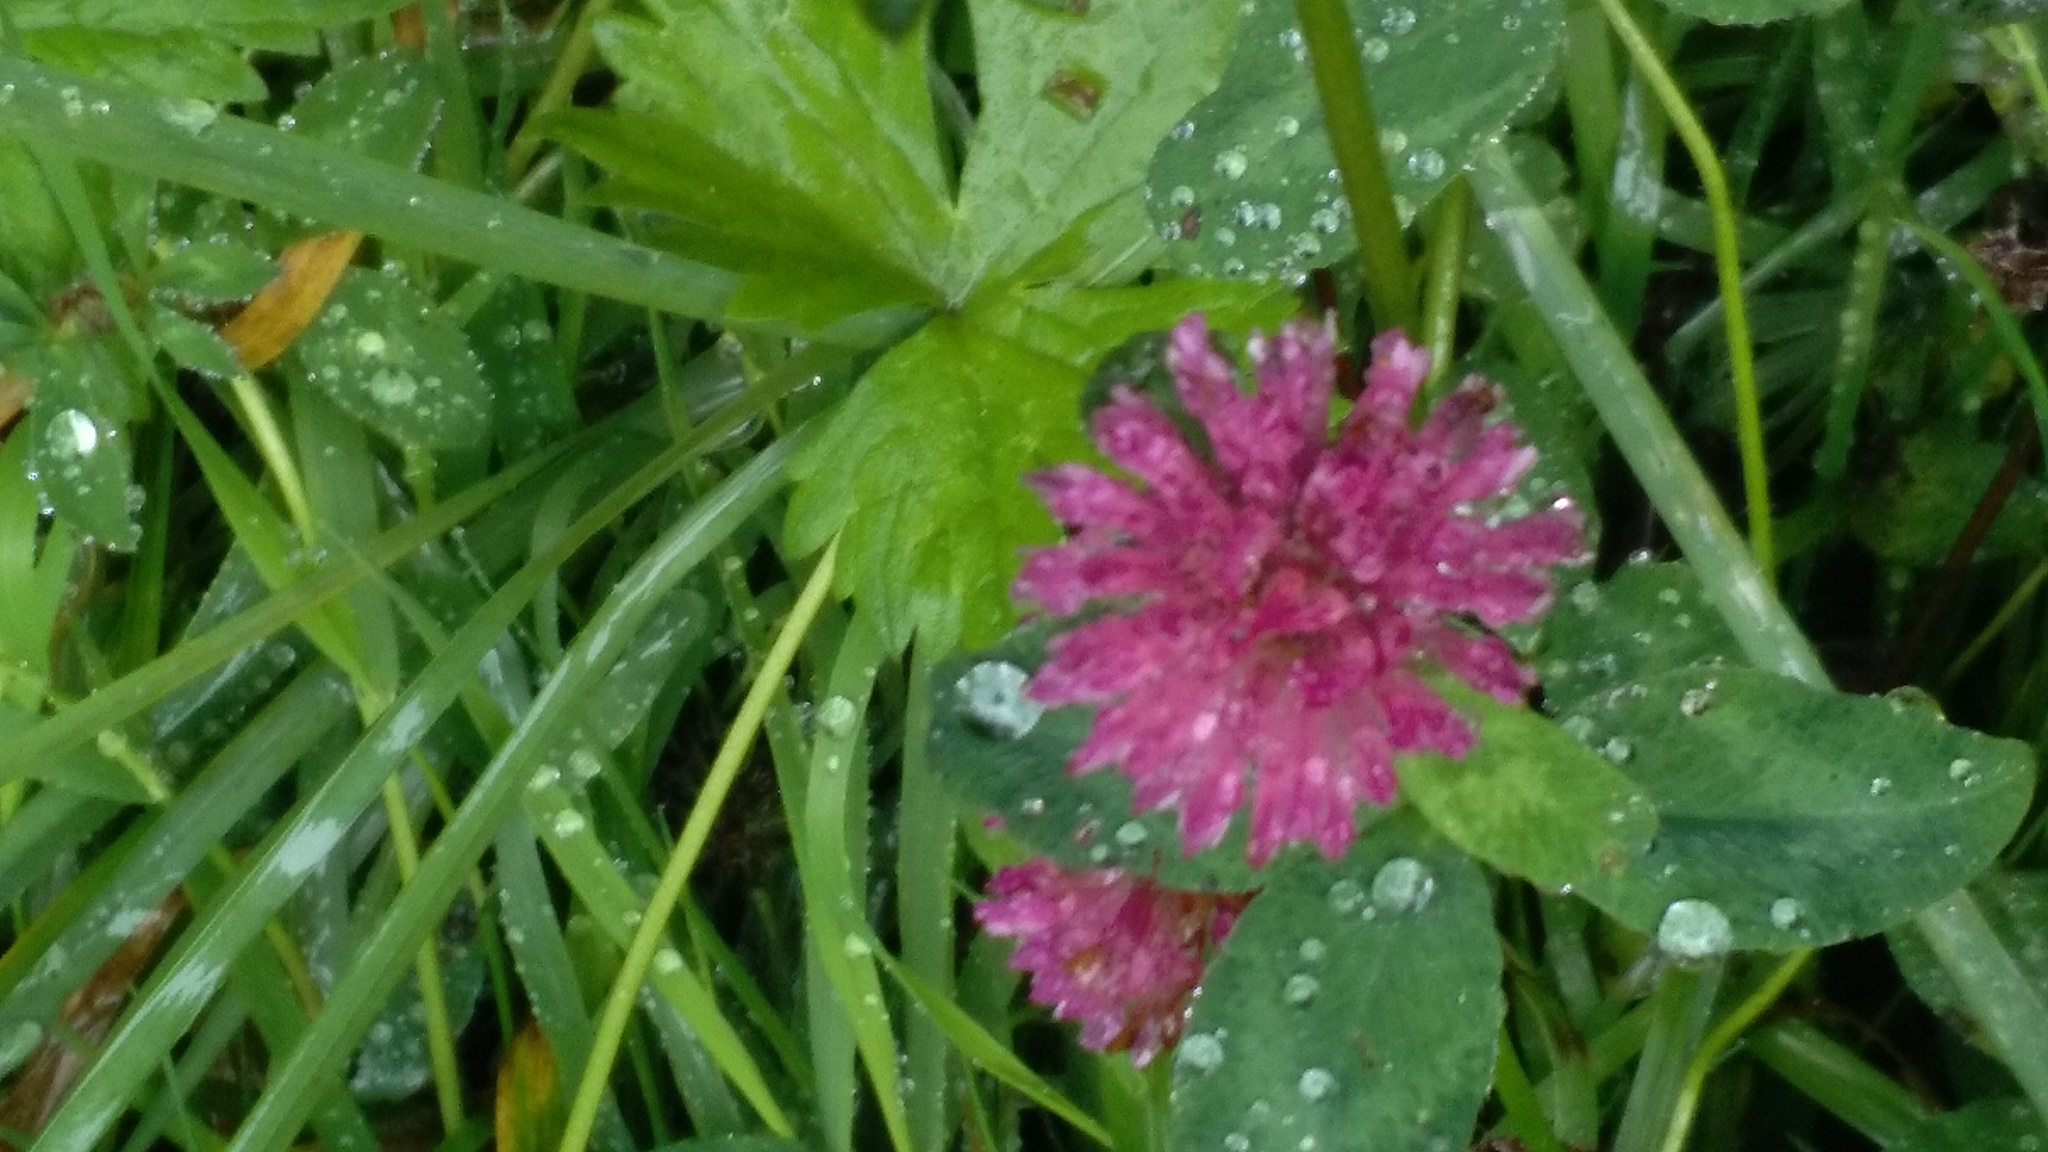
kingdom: Plantae
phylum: Tracheophyta
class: Magnoliopsida
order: Fabales
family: Fabaceae
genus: Trifolium
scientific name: Trifolium pratense
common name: Red clover
